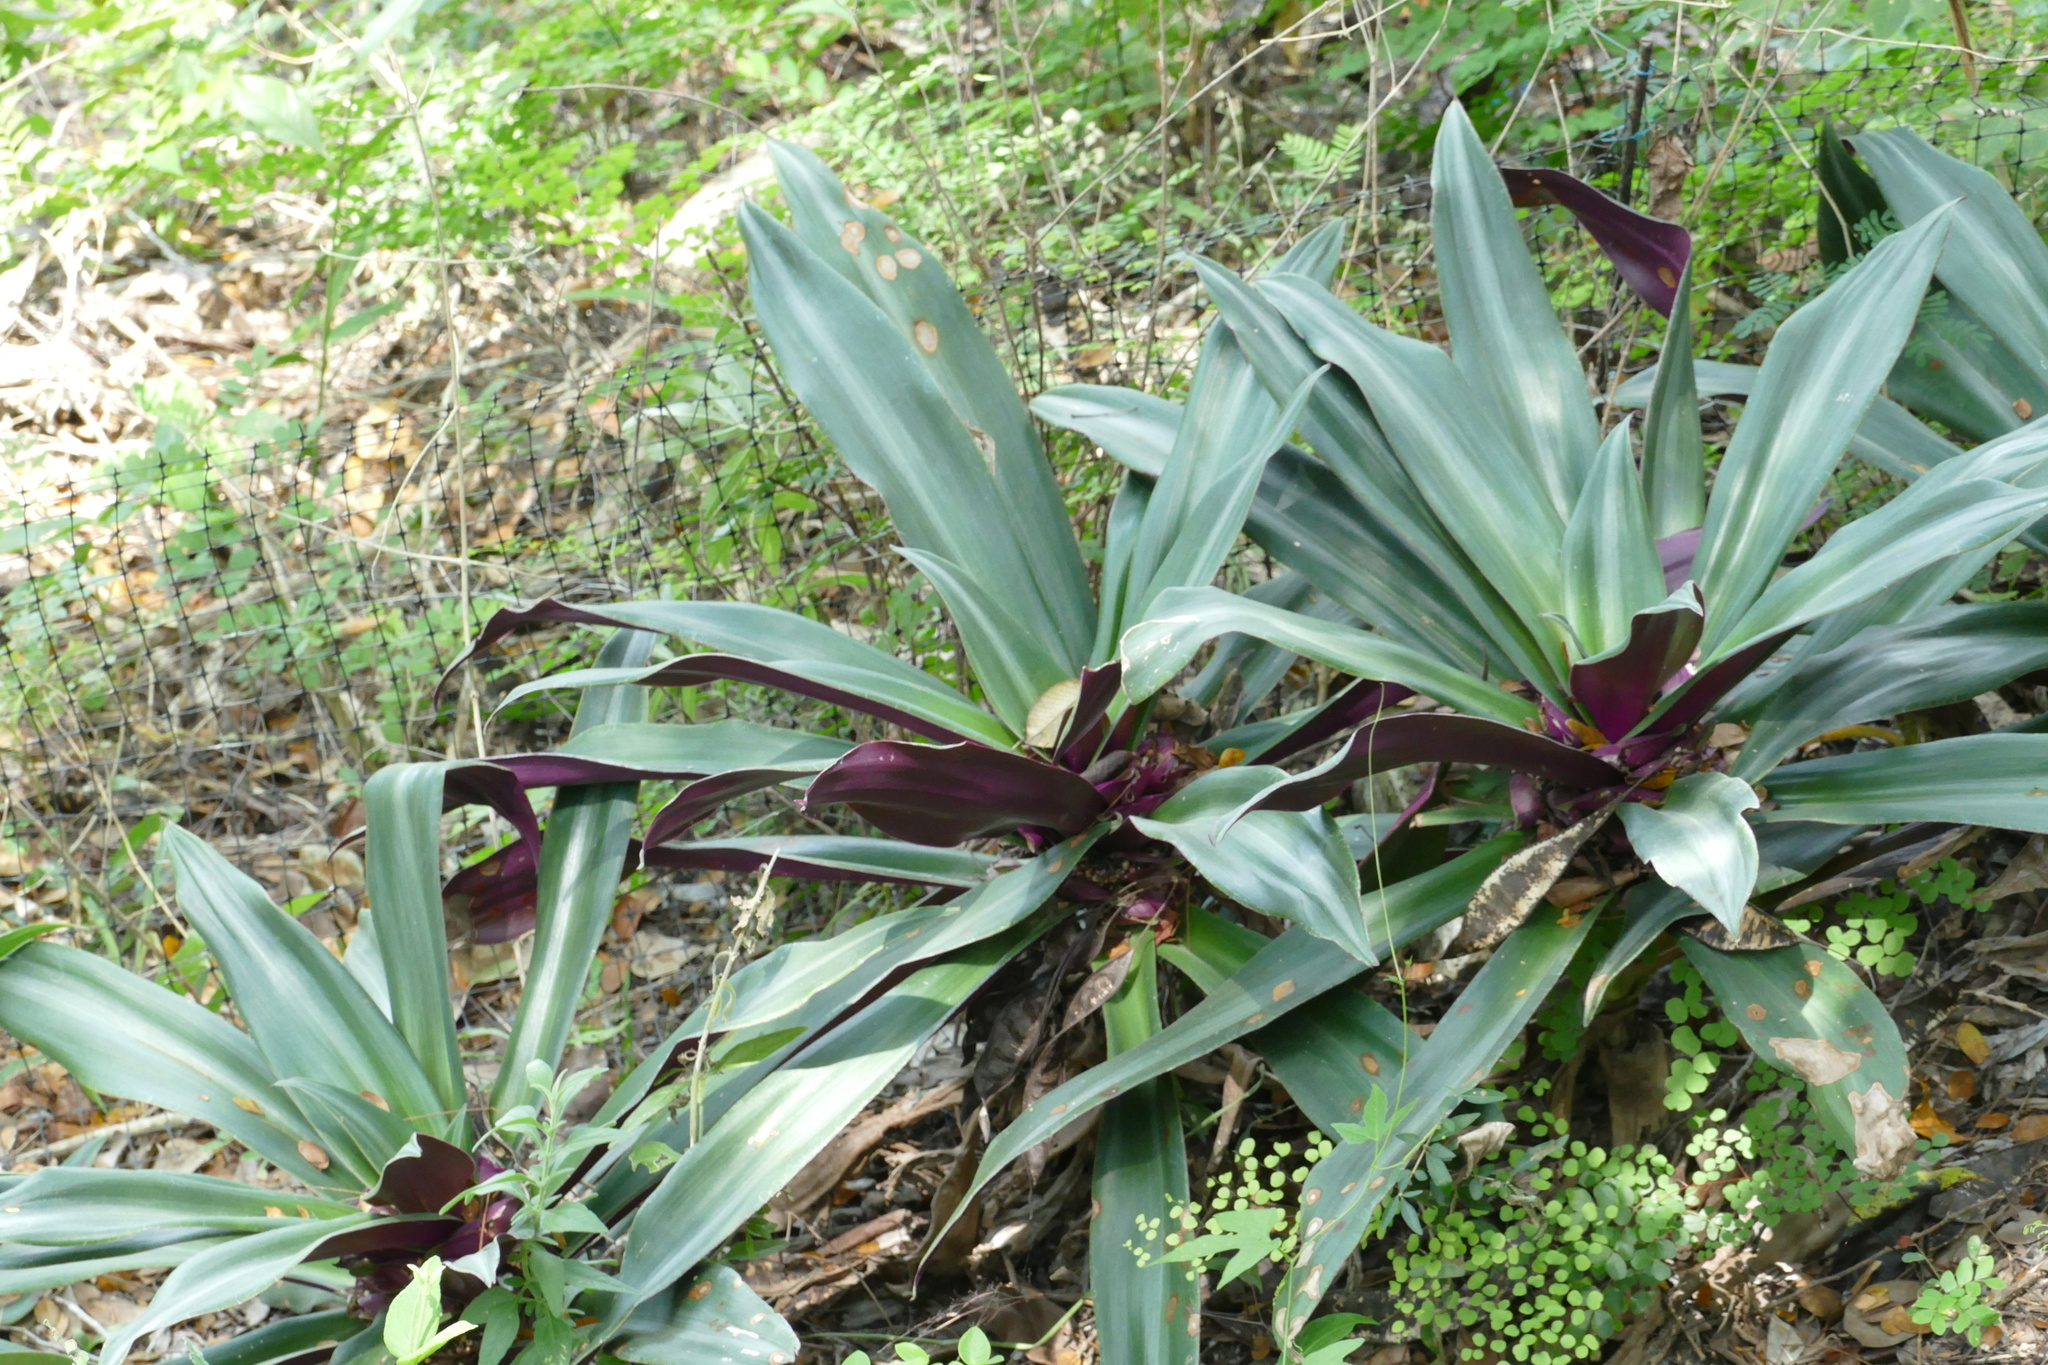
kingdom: Plantae
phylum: Tracheophyta
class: Liliopsida
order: Commelinales
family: Commelinaceae
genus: Tradescantia
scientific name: Tradescantia spathacea
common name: Boatlily
